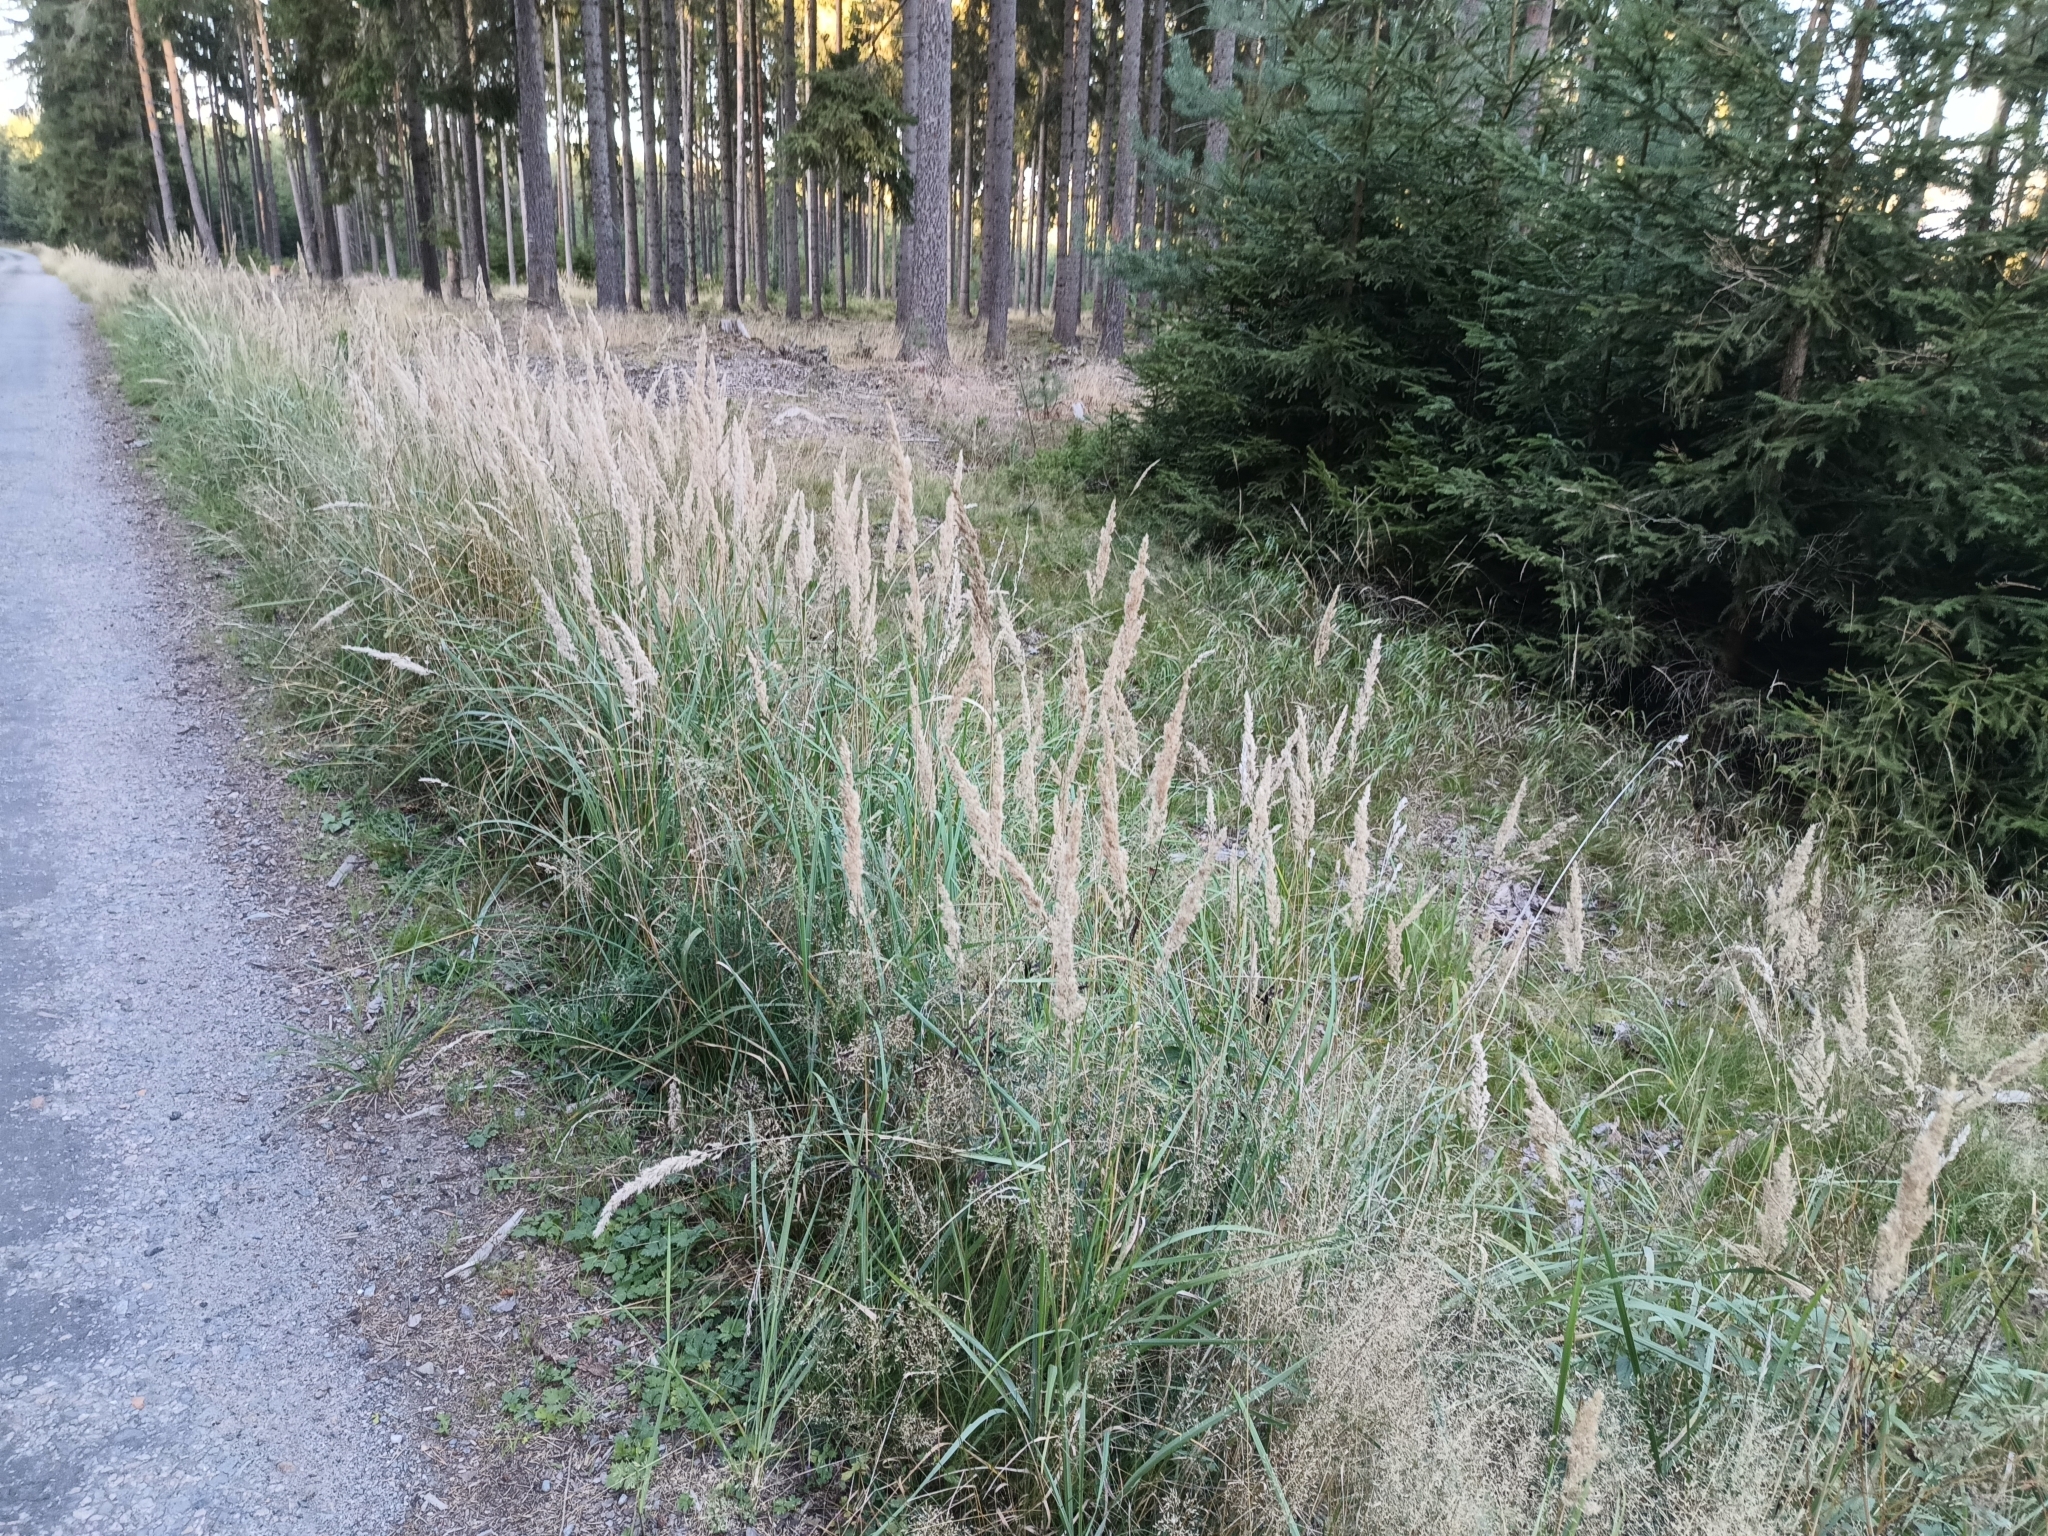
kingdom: Plantae
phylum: Tracheophyta
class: Liliopsida
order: Poales
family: Poaceae
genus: Calamagrostis
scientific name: Calamagrostis epigejos
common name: Wood small-reed
